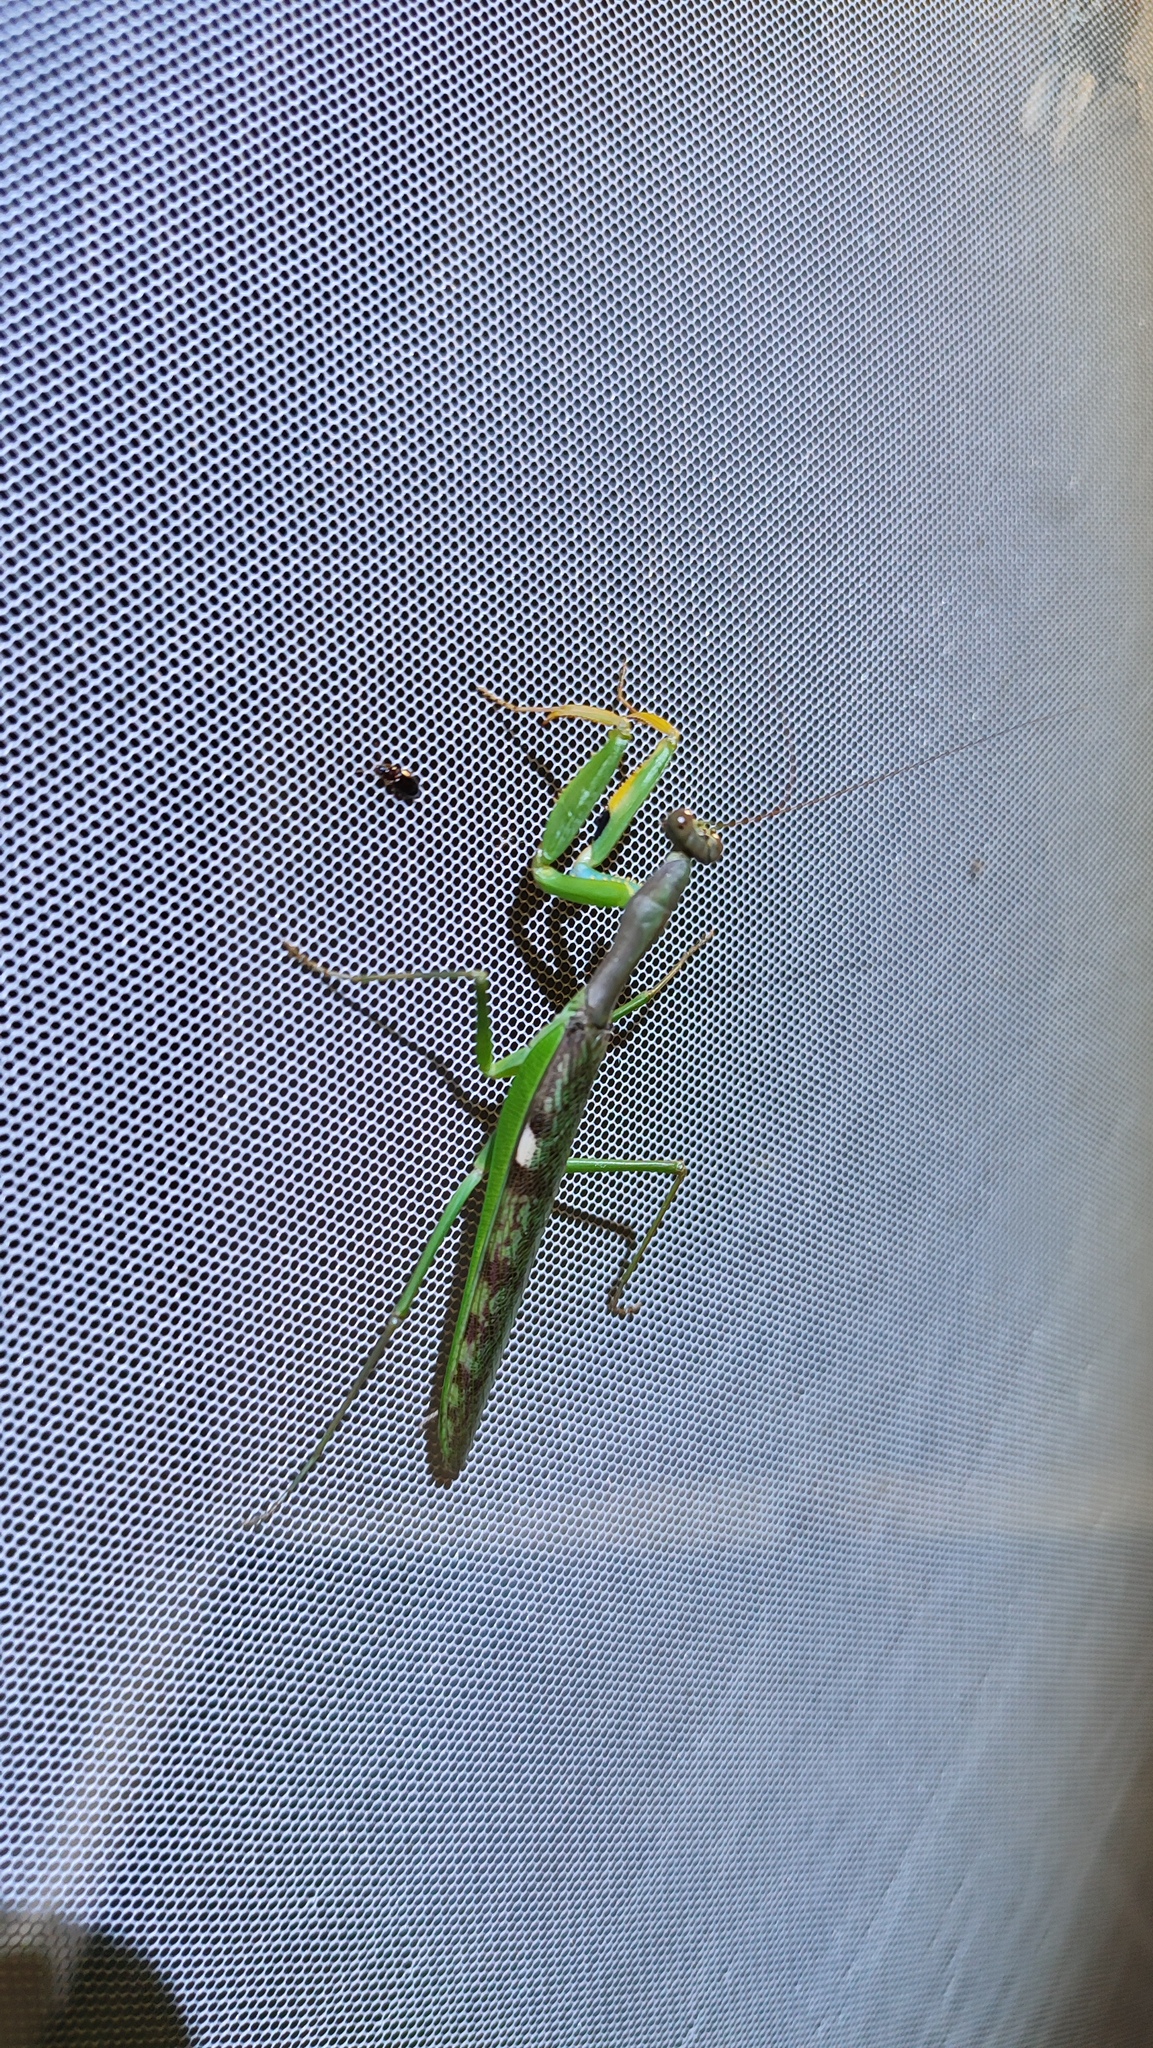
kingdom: Animalia
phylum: Arthropoda
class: Insecta
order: Mantodea
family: Mantidae
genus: Polyspilota
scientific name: Polyspilota aeruginosa
